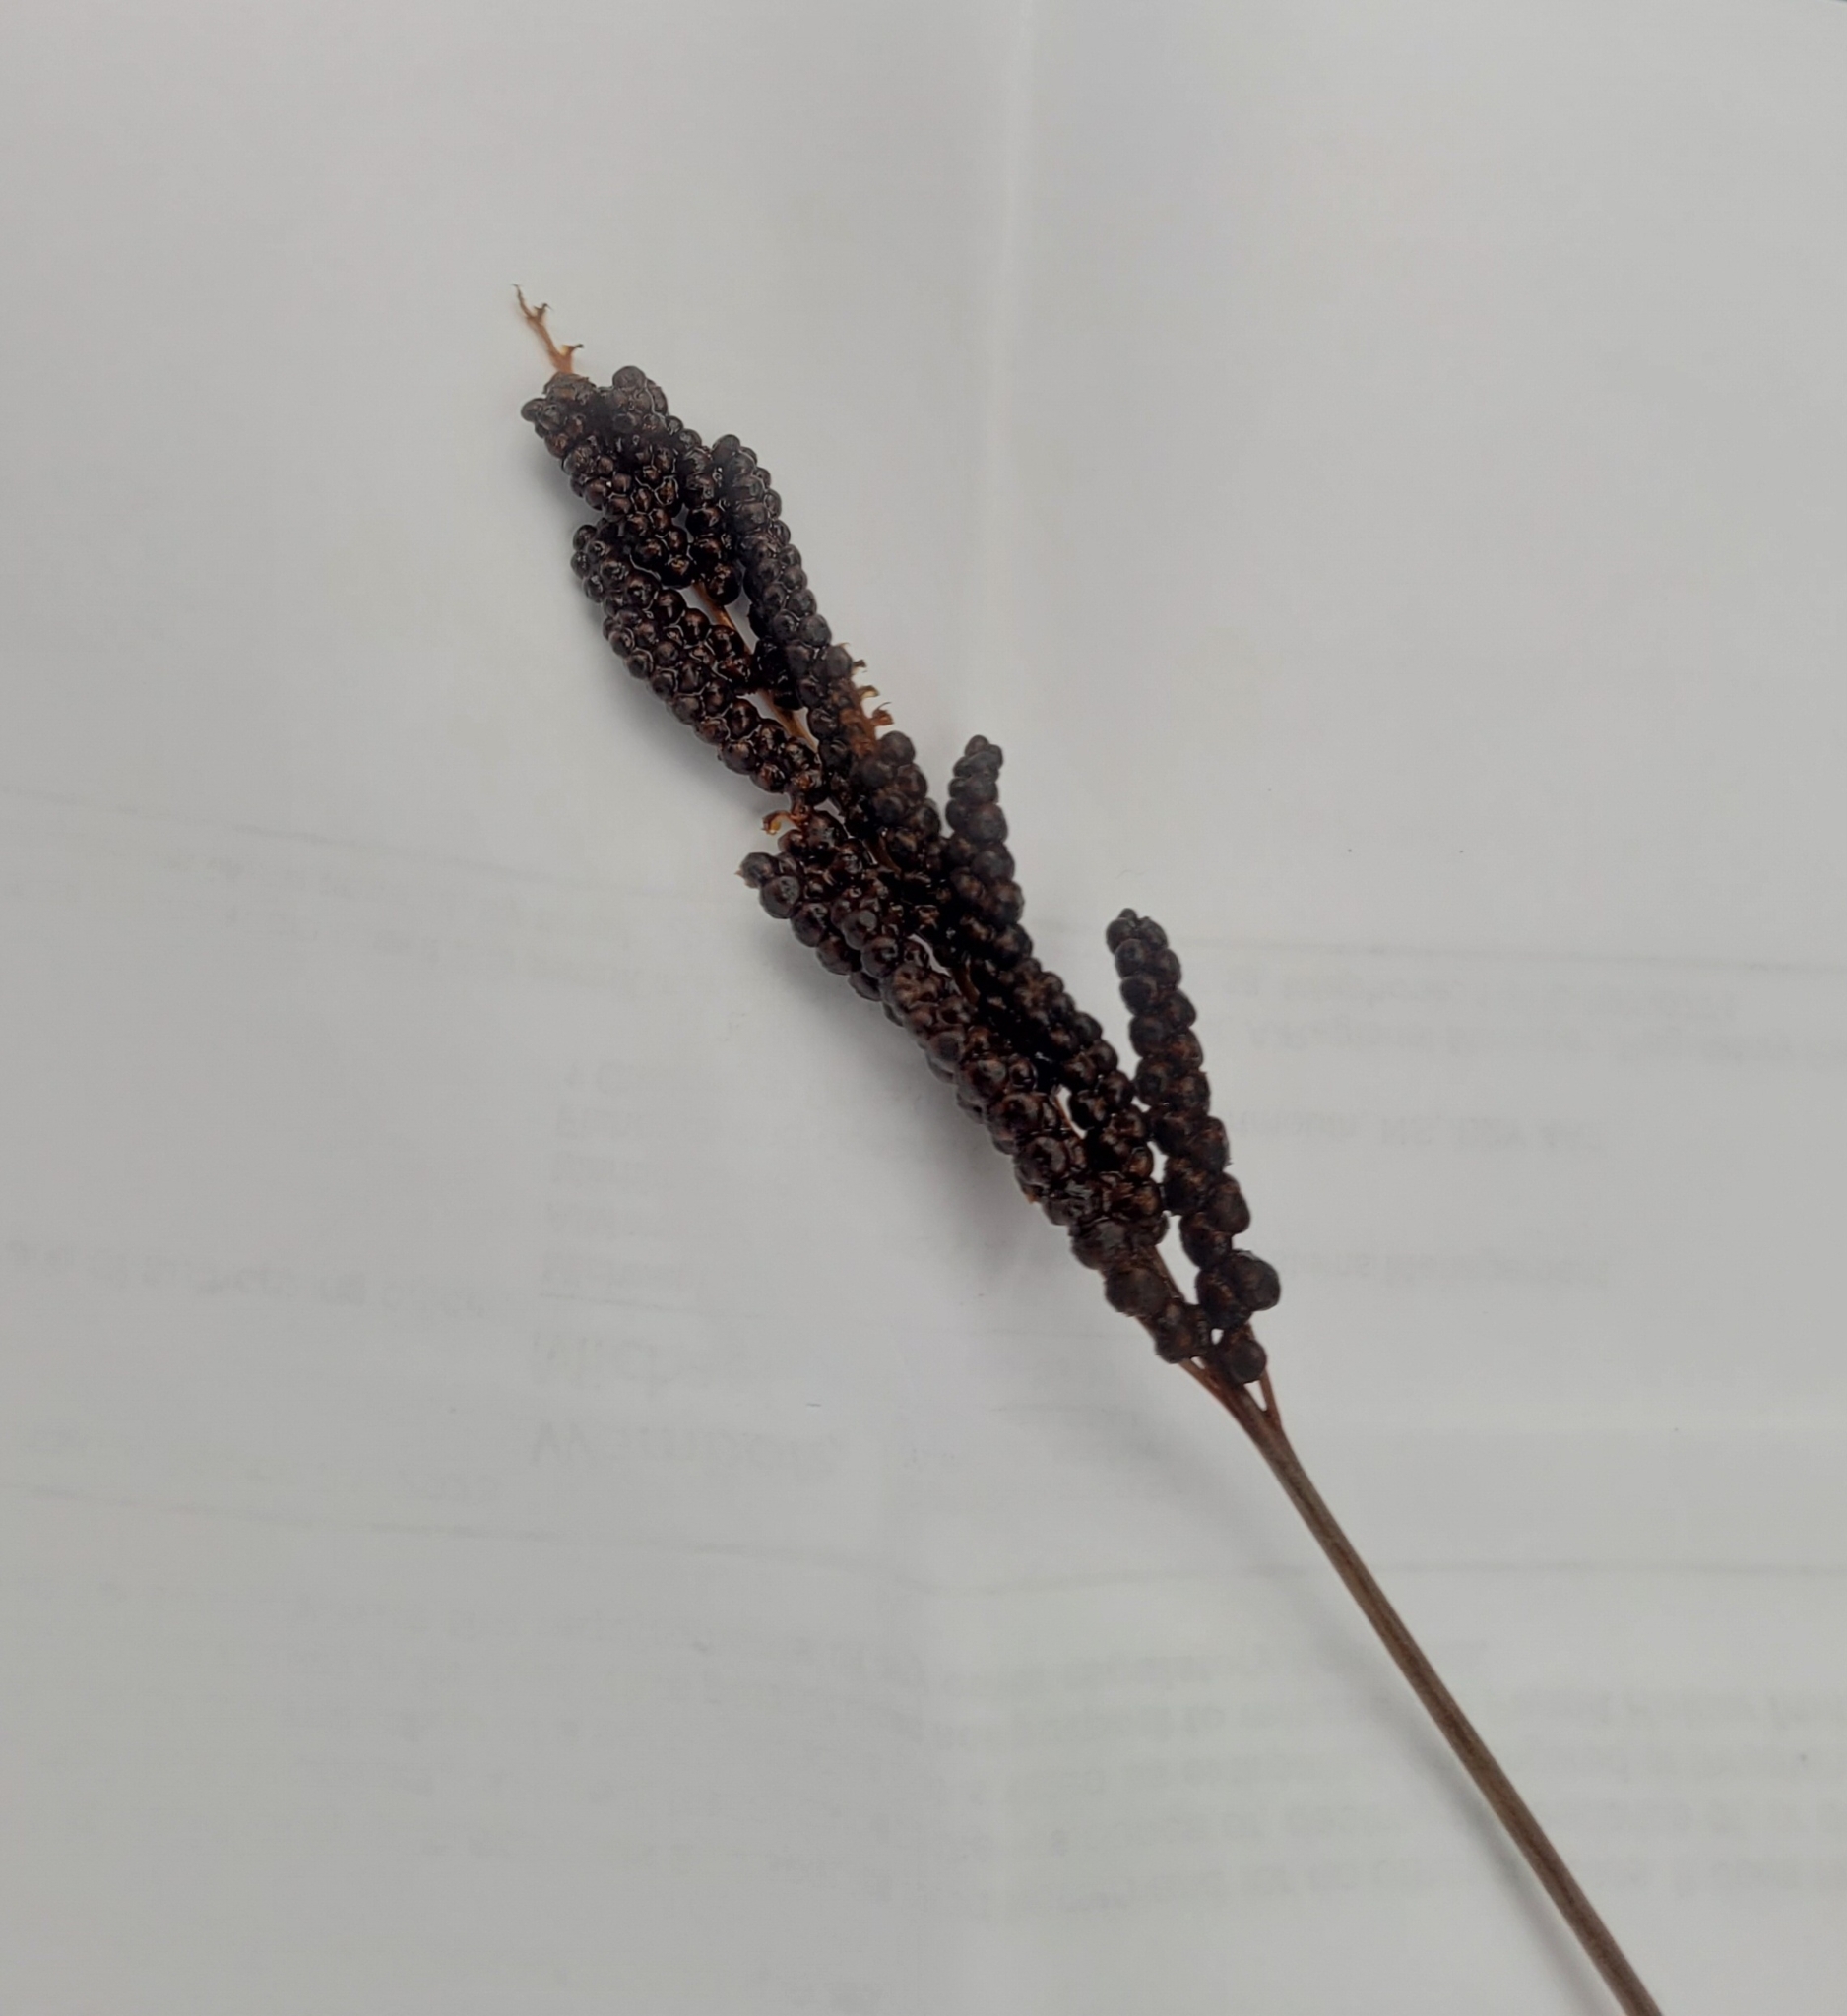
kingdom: Plantae
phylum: Tracheophyta
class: Polypodiopsida
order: Polypodiales
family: Onocleaceae
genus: Onoclea
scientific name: Onoclea sensibilis
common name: Sensitive fern
